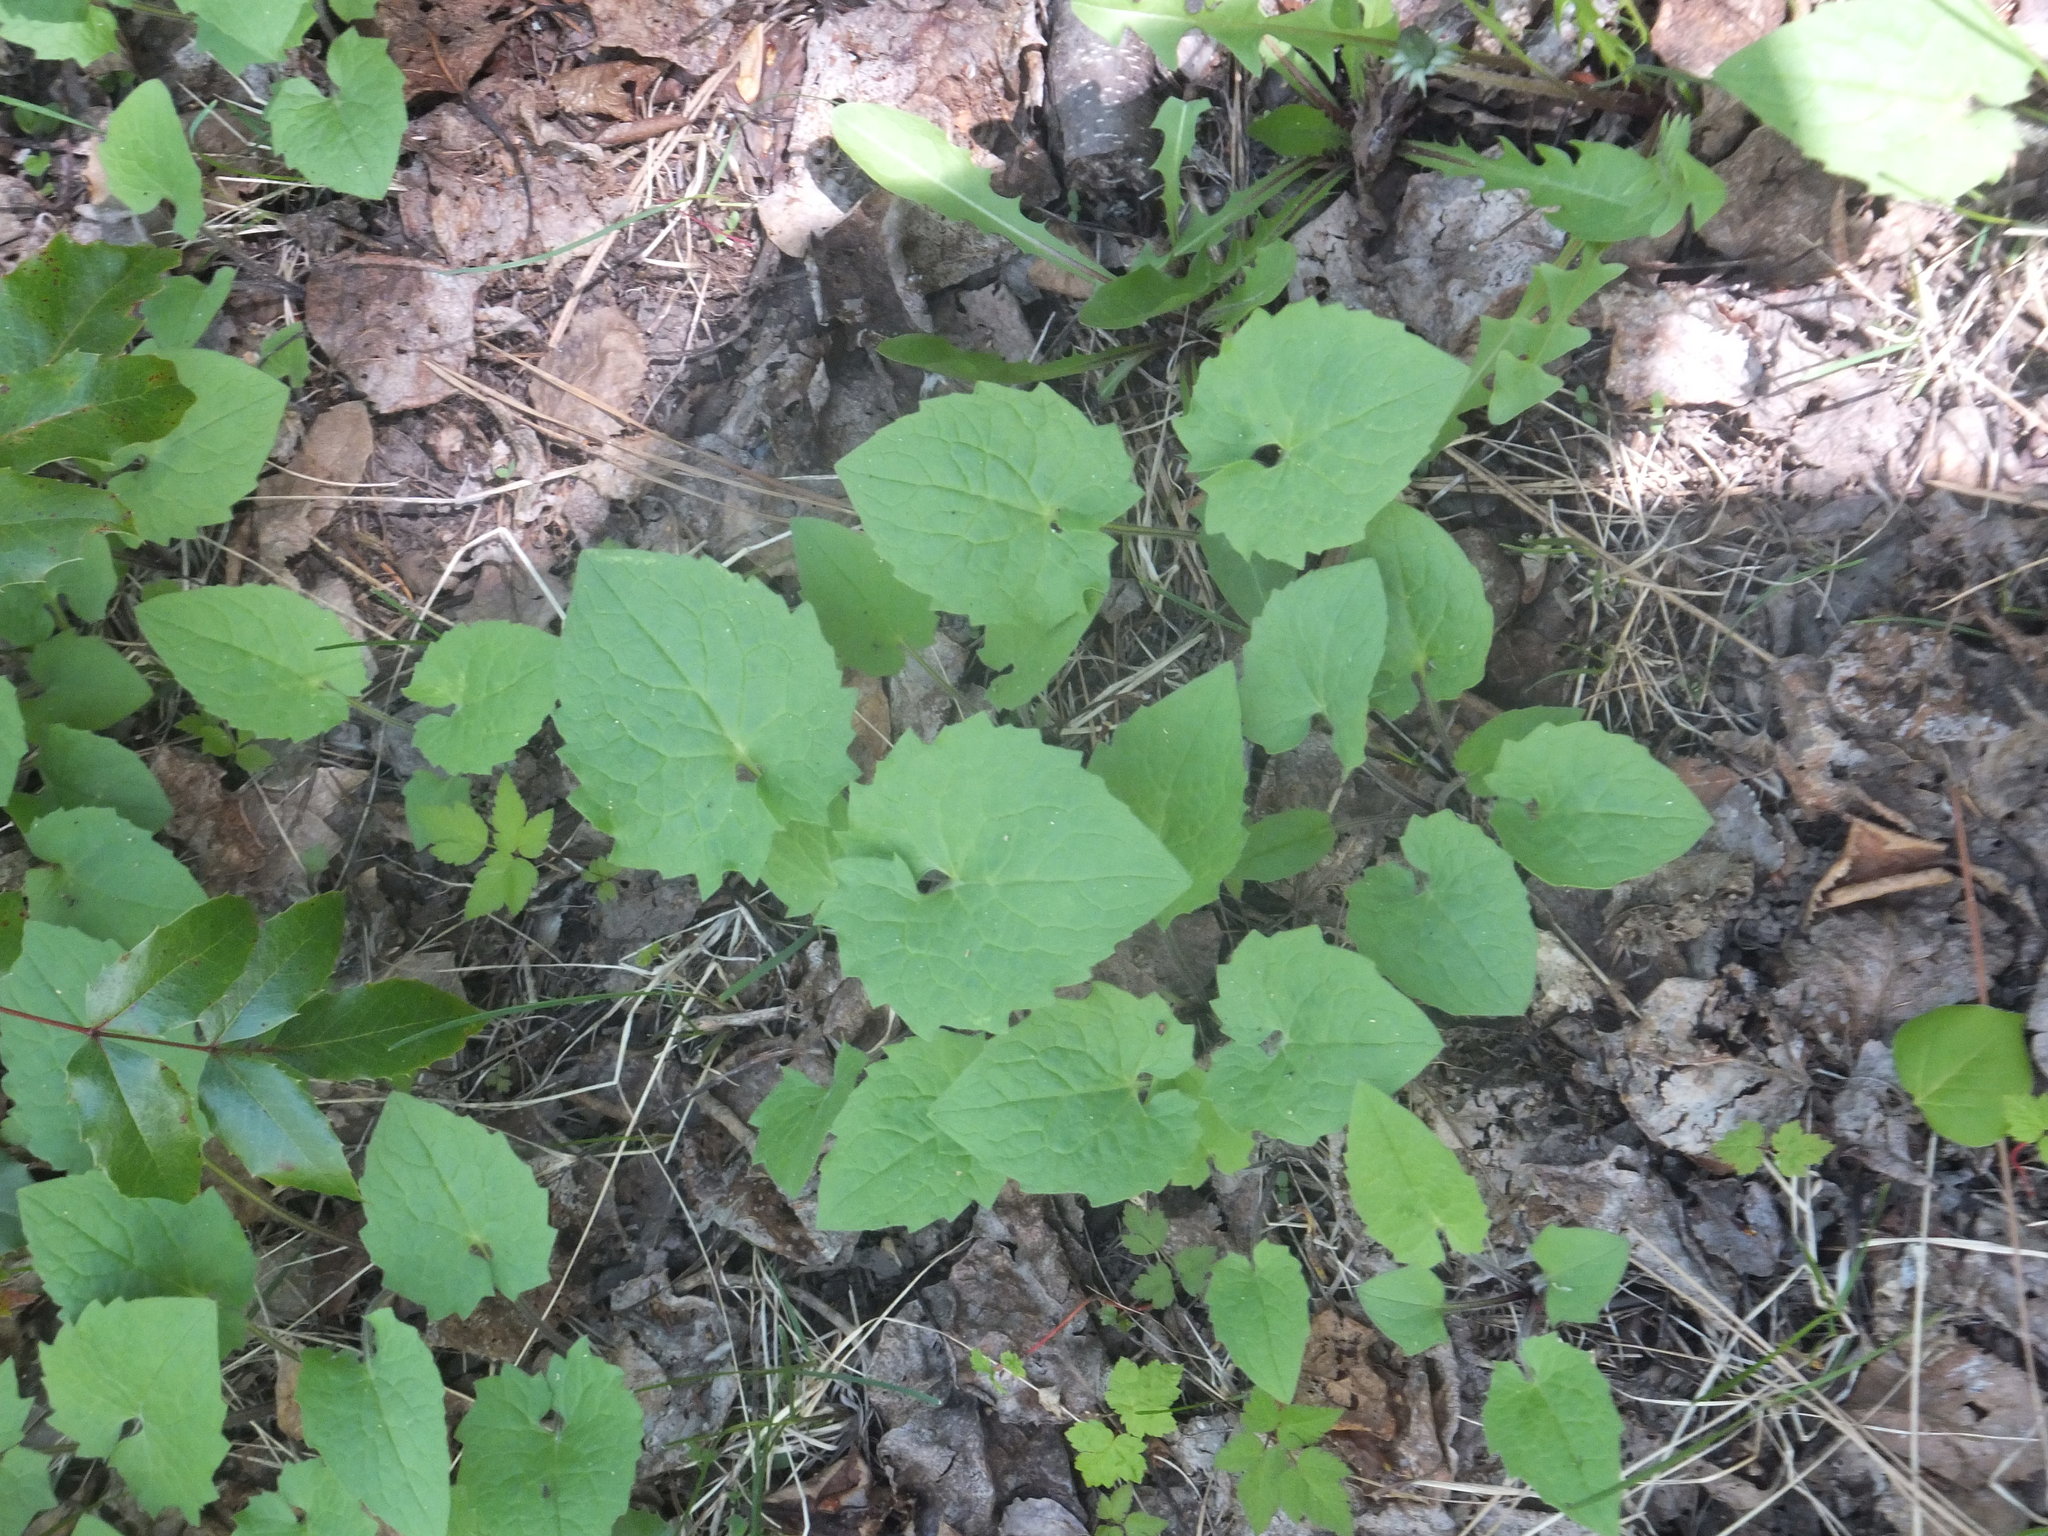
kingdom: Plantae
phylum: Tracheophyta
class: Magnoliopsida
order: Asterales
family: Asteraceae
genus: Arnica
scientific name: Arnica cordifolia
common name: Heart-leaf arnica
